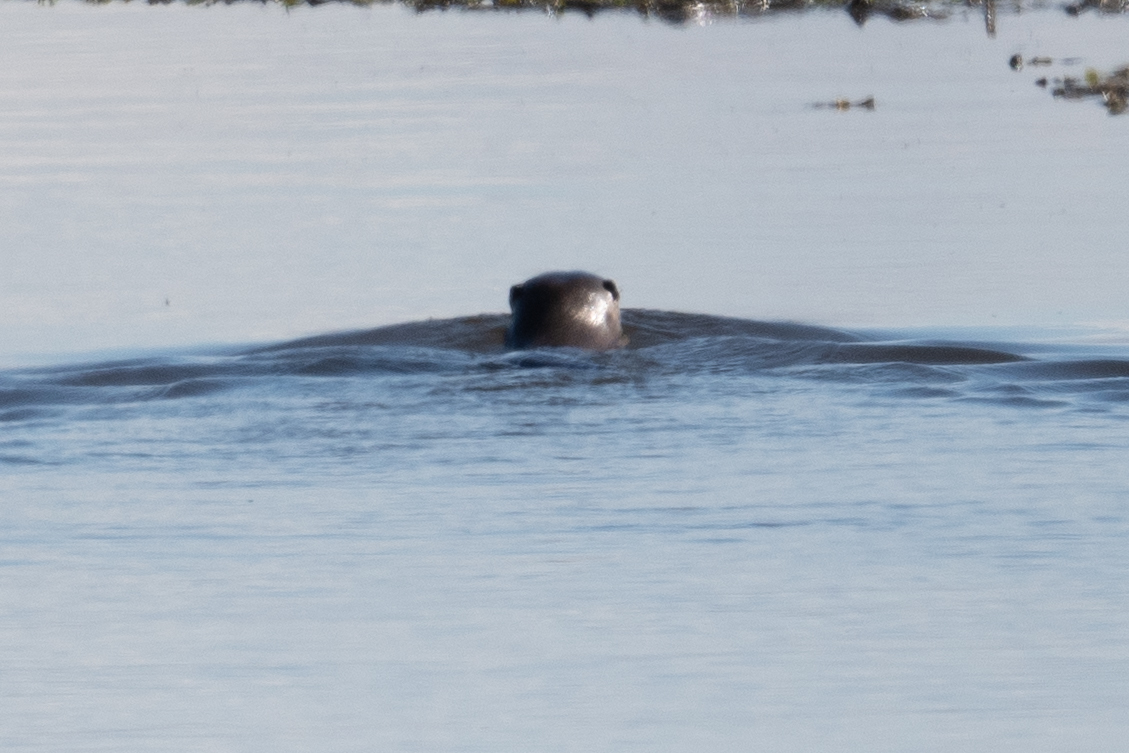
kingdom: Animalia
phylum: Chordata
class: Mammalia
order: Carnivora
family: Mustelidae
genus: Lontra
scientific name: Lontra canadensis
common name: North american river otter
